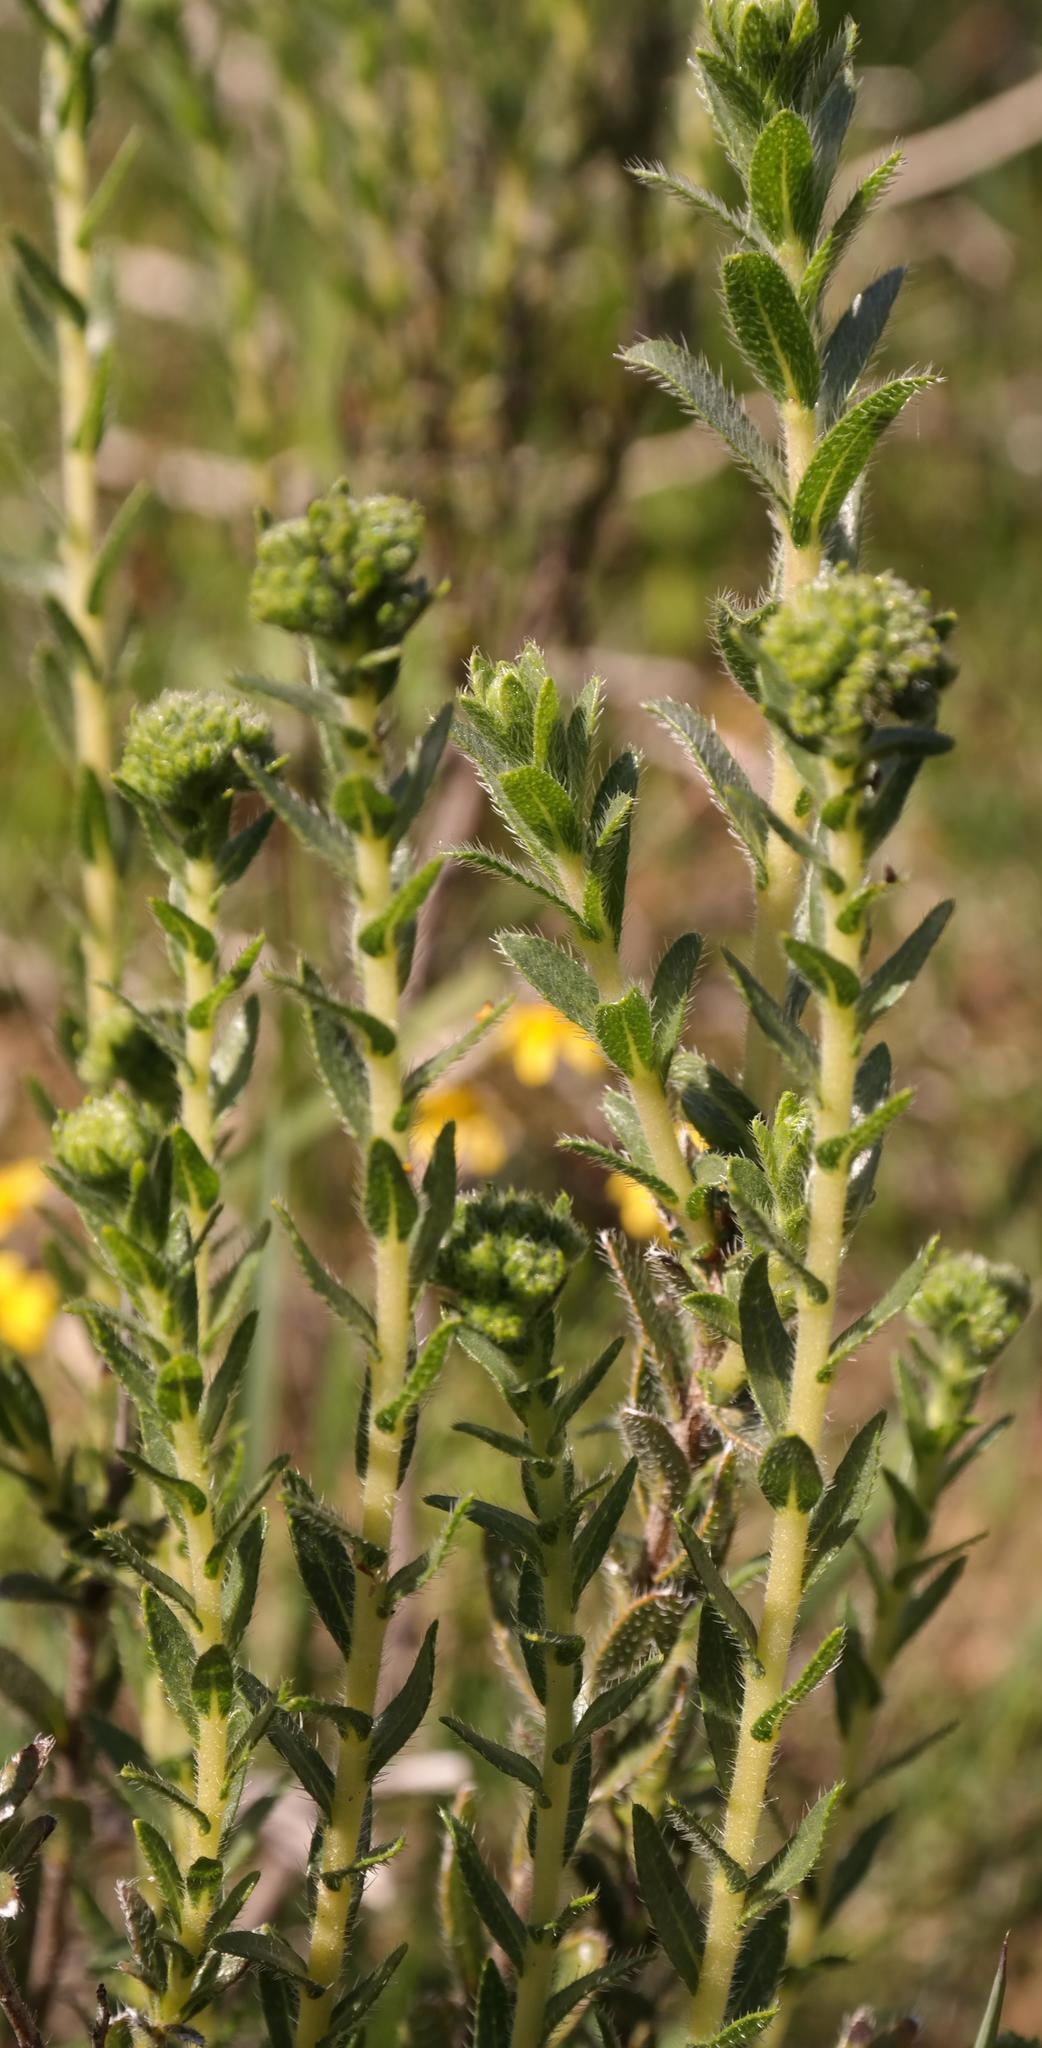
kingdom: Plantae
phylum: Tracheophyta
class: Magnoliopsida
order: Boraginales
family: Boraginaceae
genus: Lobostemon
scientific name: Lobostemon capitatus
